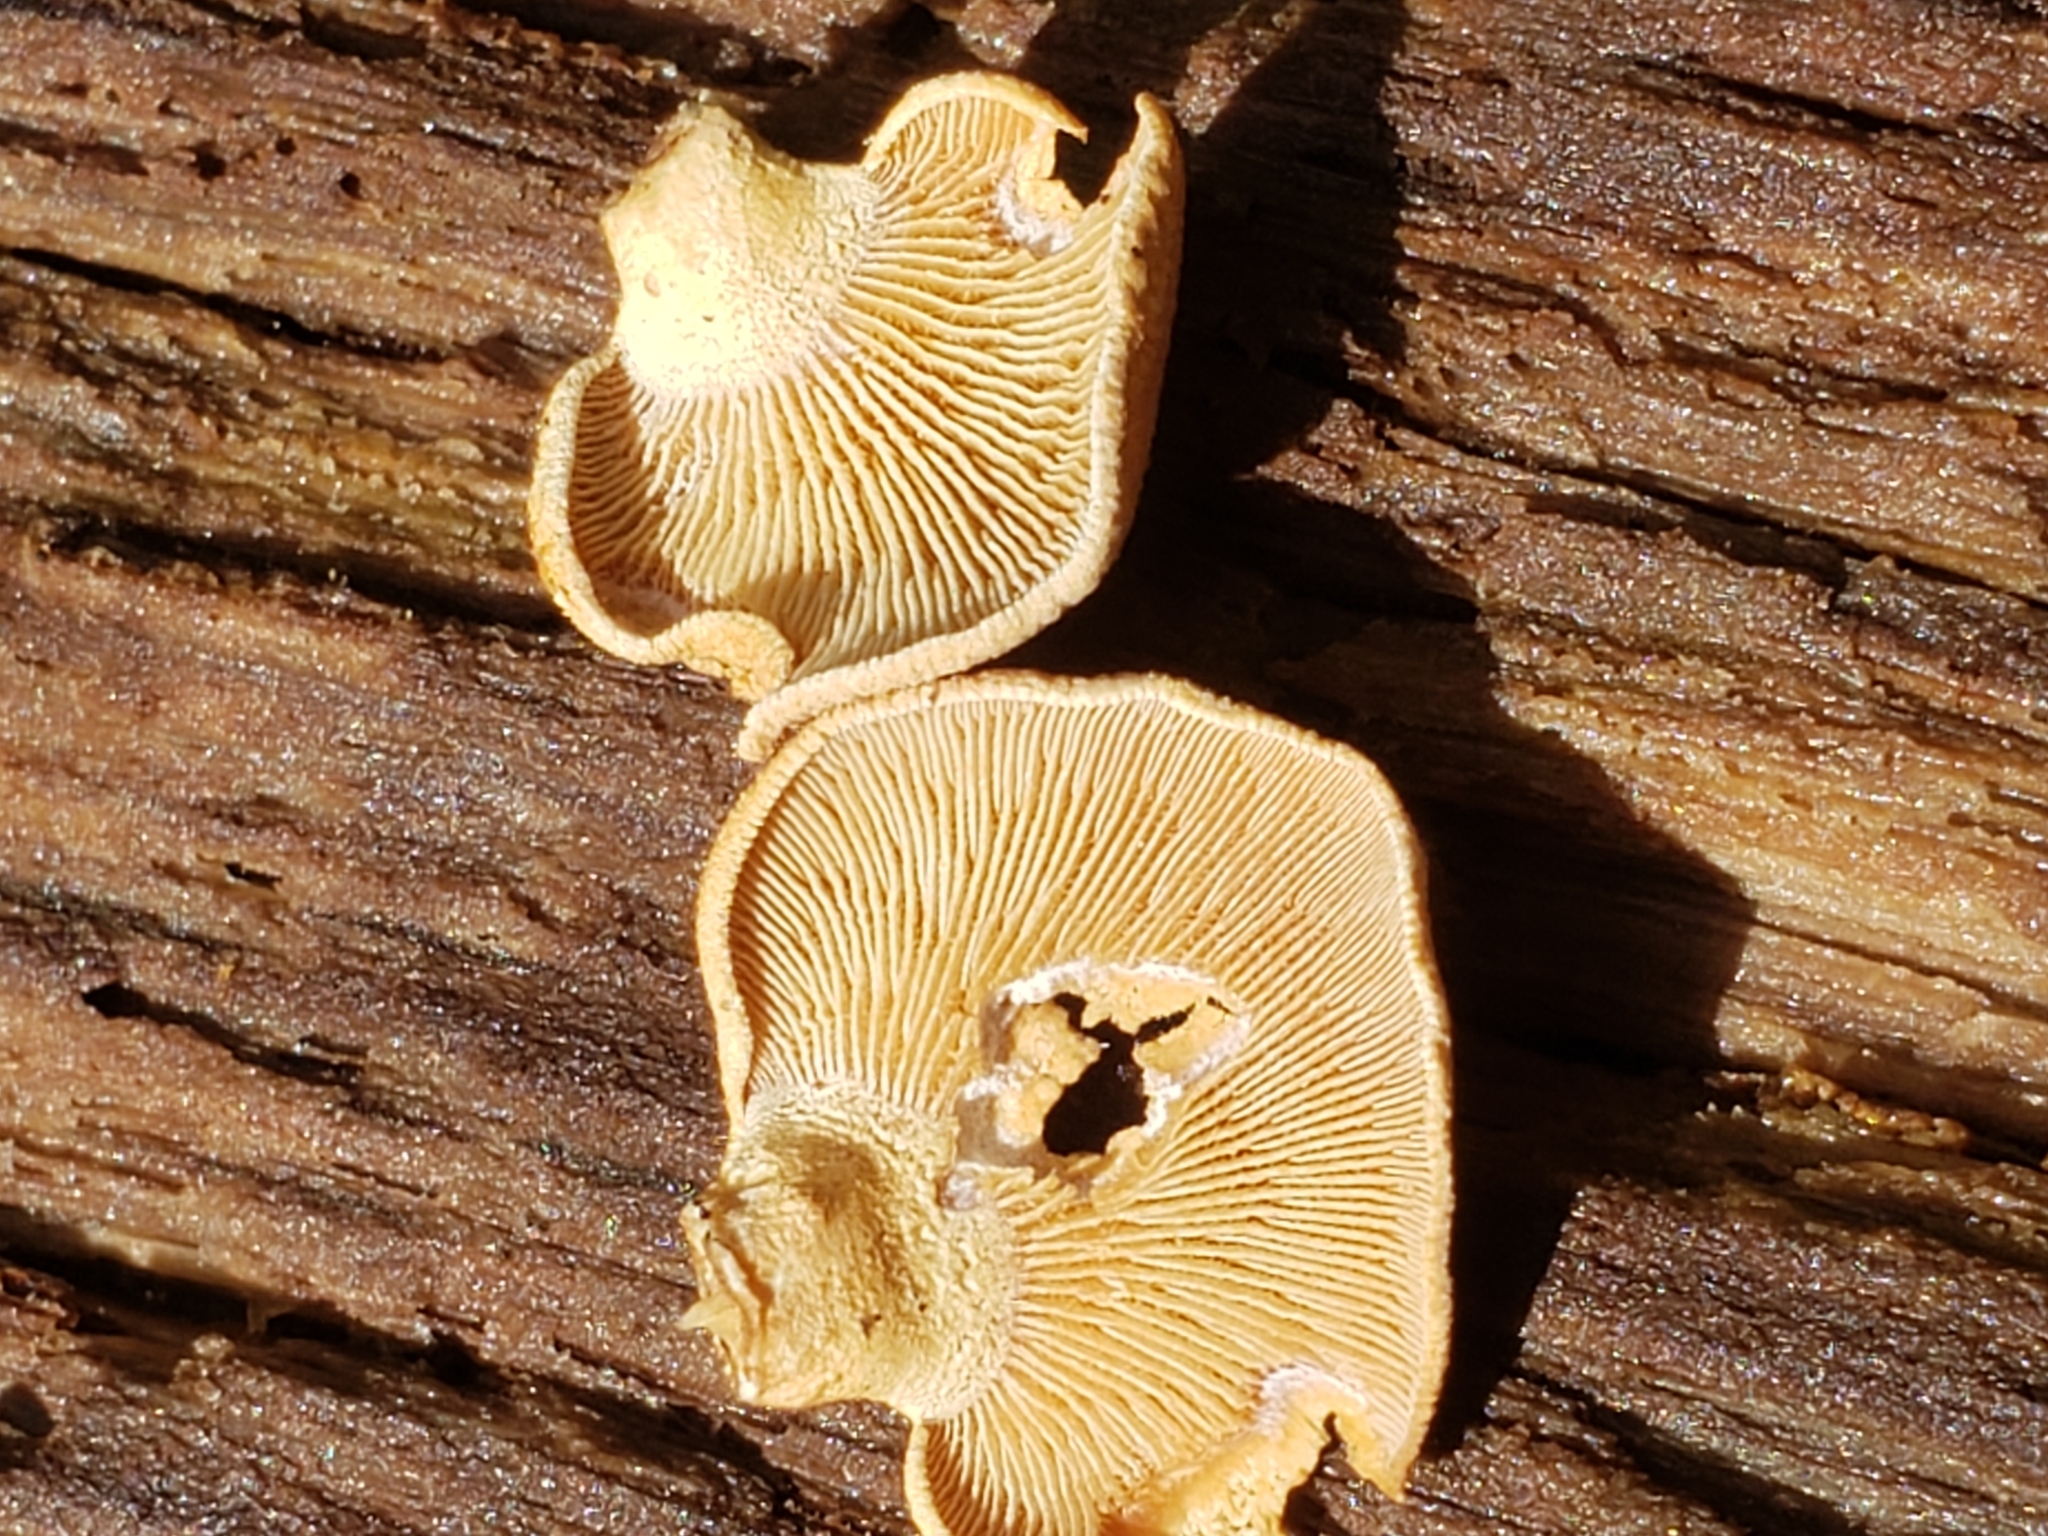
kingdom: Fungi
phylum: Basidiomycota
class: Agaricomycetes
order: Agaricales
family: Mycenaceae
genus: Panellus
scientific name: Panellus stipticus
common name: Bitter oysterling
